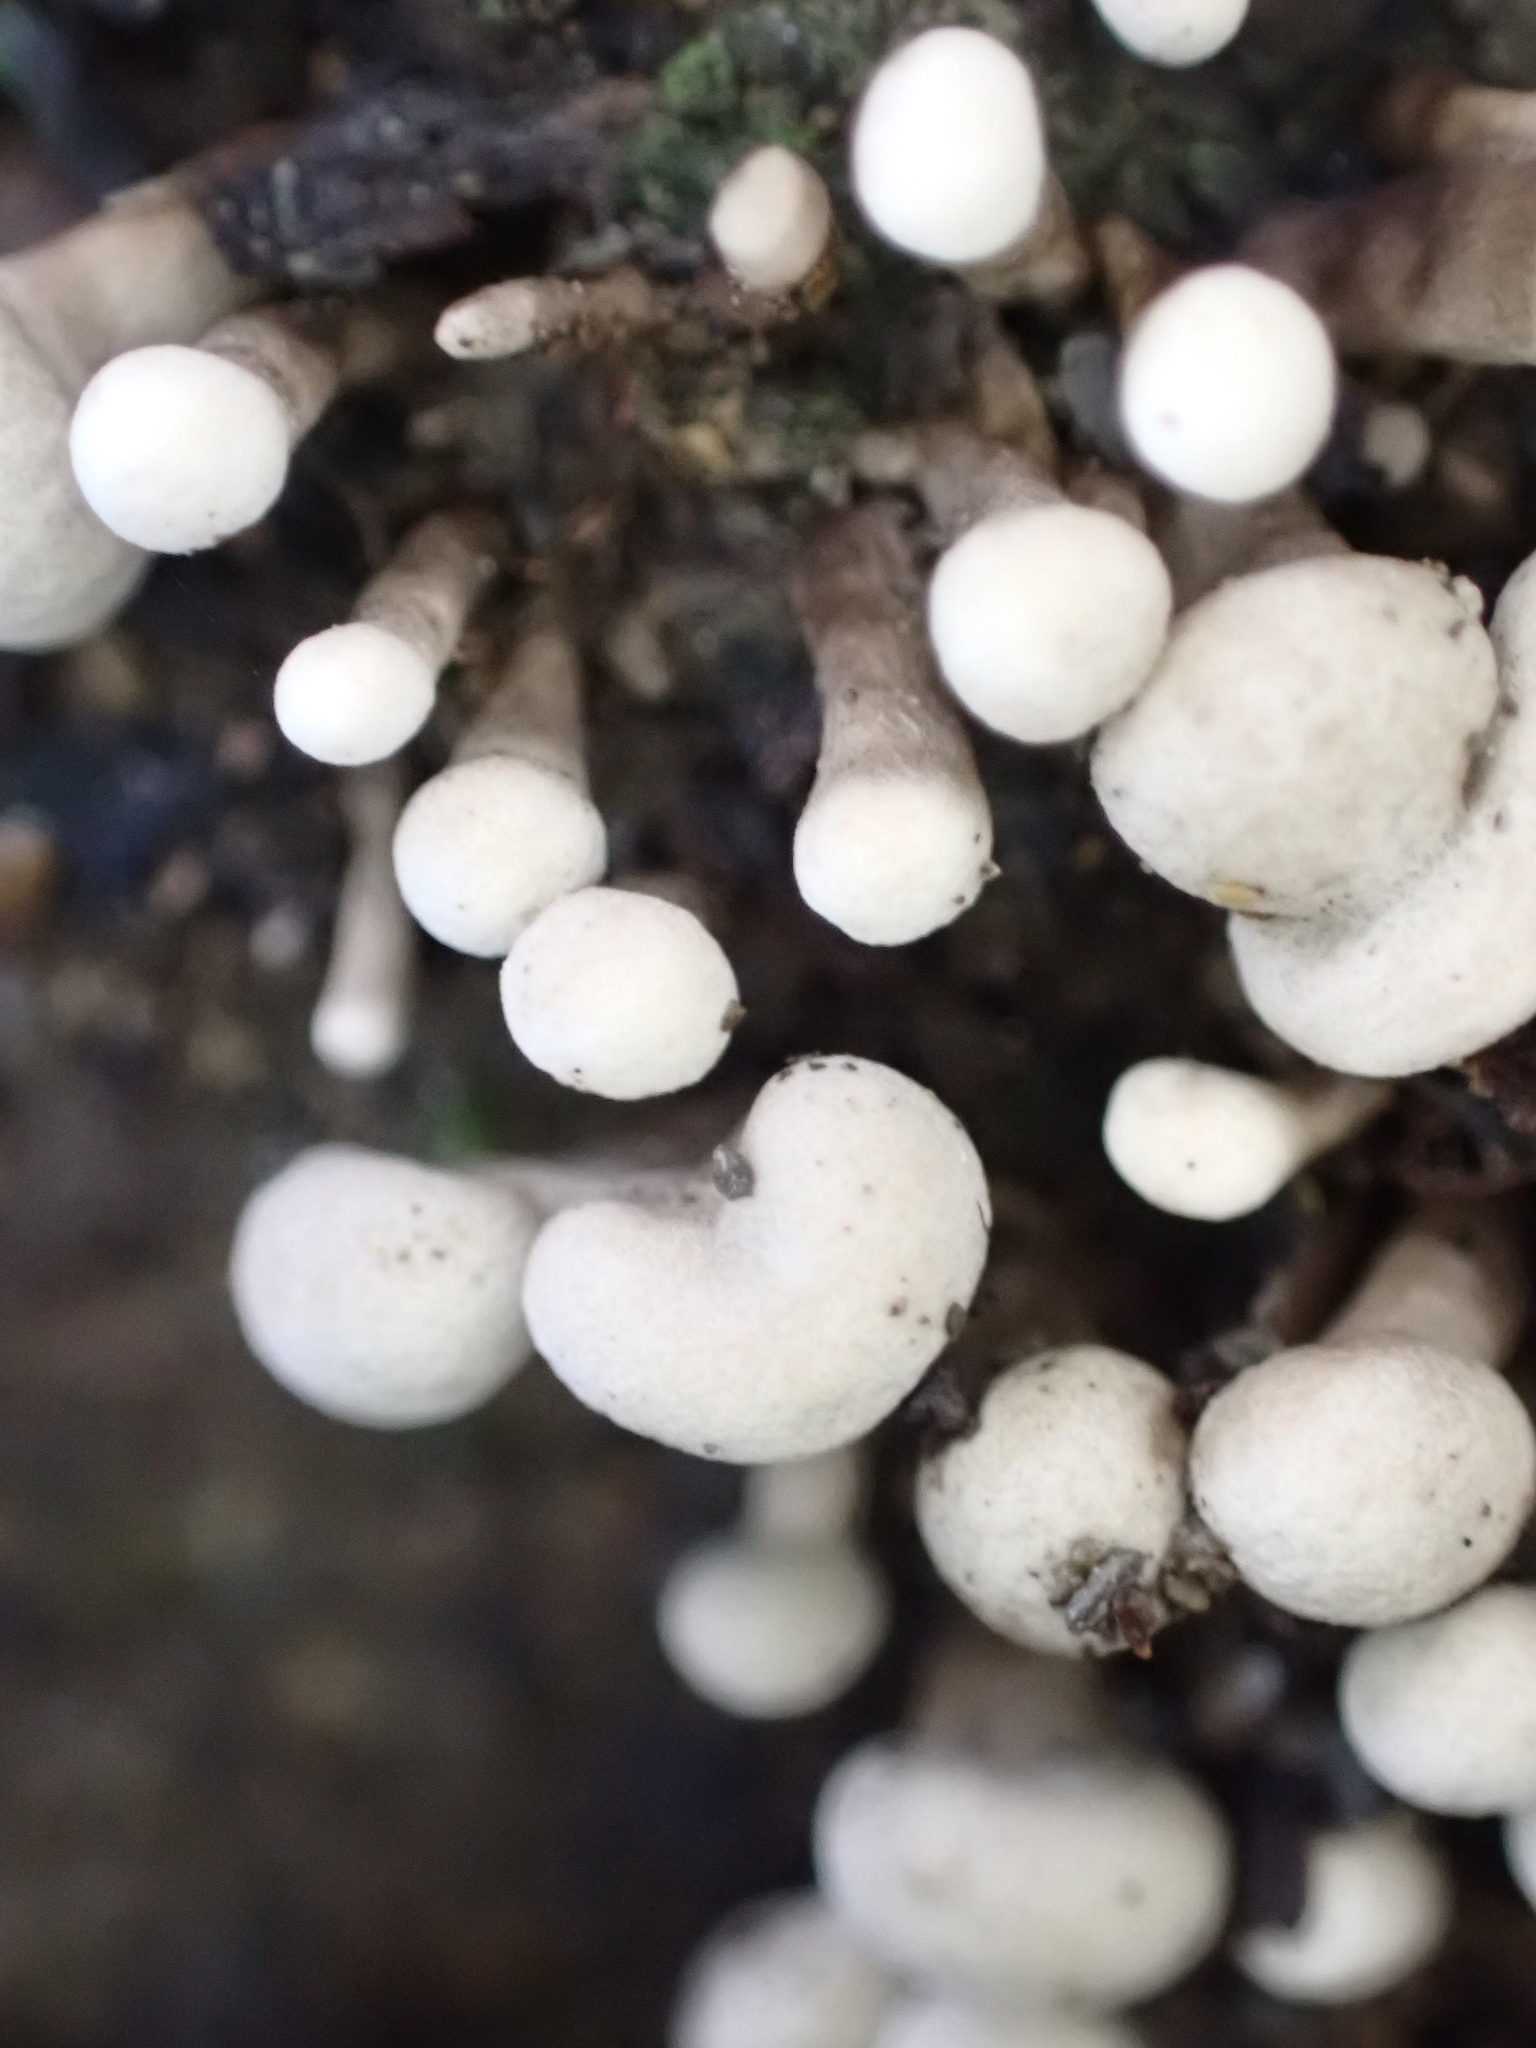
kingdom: Fungi
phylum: Basidiomycota
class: Atractiellomycetes
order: Atractiellales
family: Phleogenaceae
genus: Phleogena
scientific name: Phleogena faginea
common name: Fenugreek stalkball
